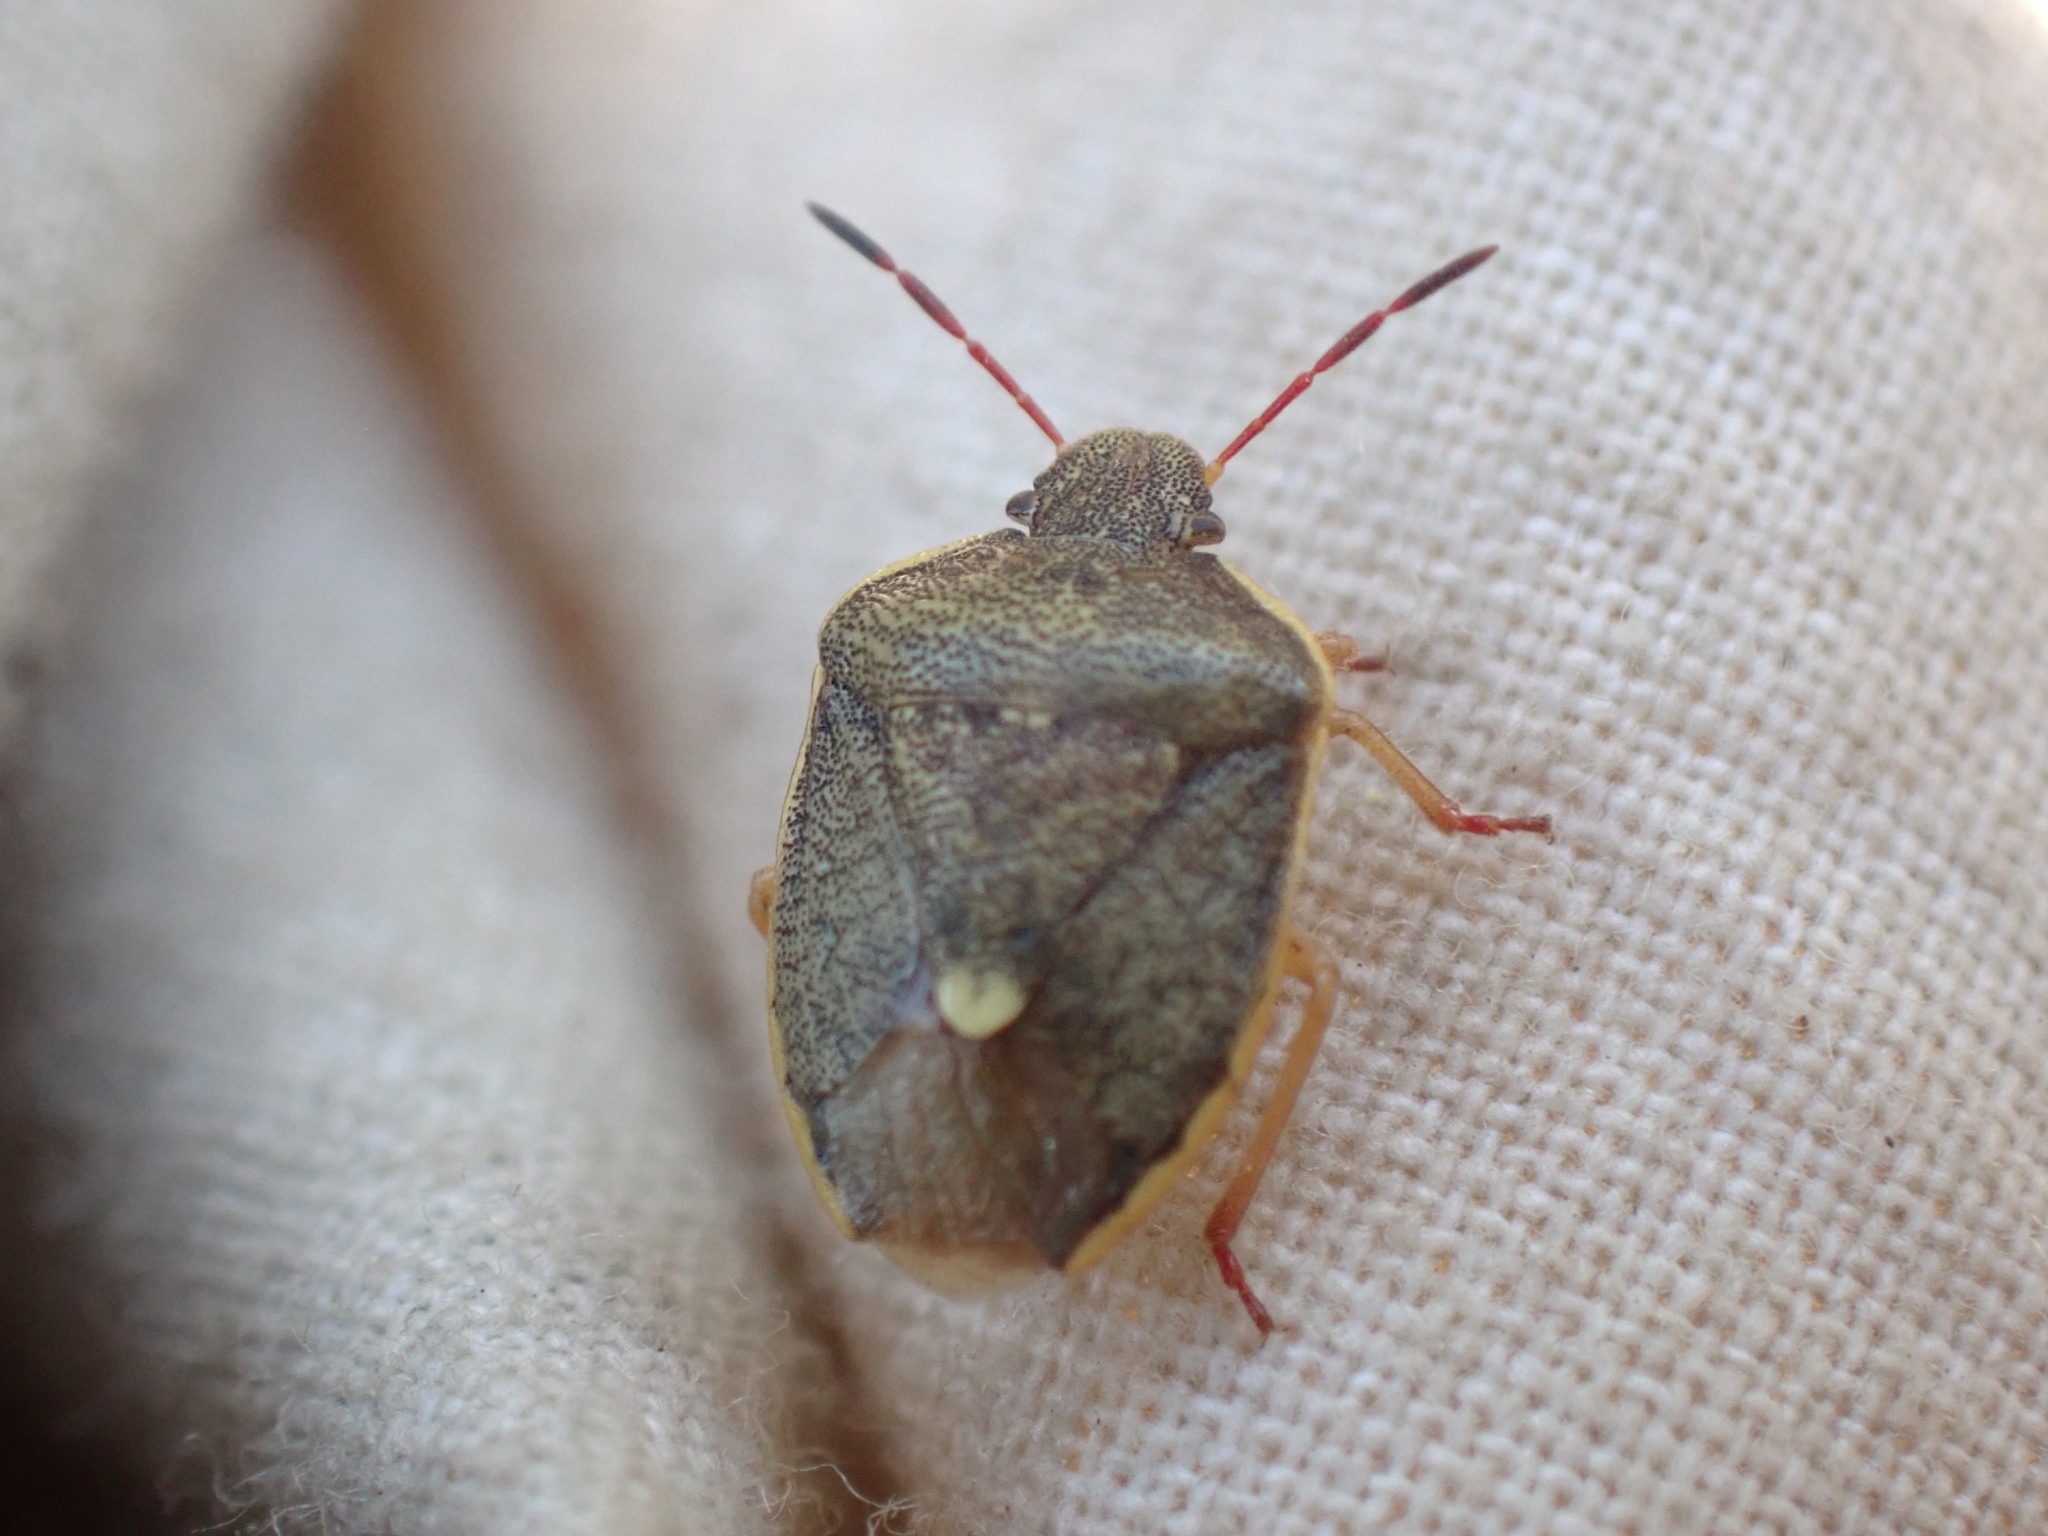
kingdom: Animalia
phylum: Arthropoda
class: Insecta
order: Hemiptera
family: Pentatomidae
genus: Holcostethus
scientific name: Holcostethus limbolarius
